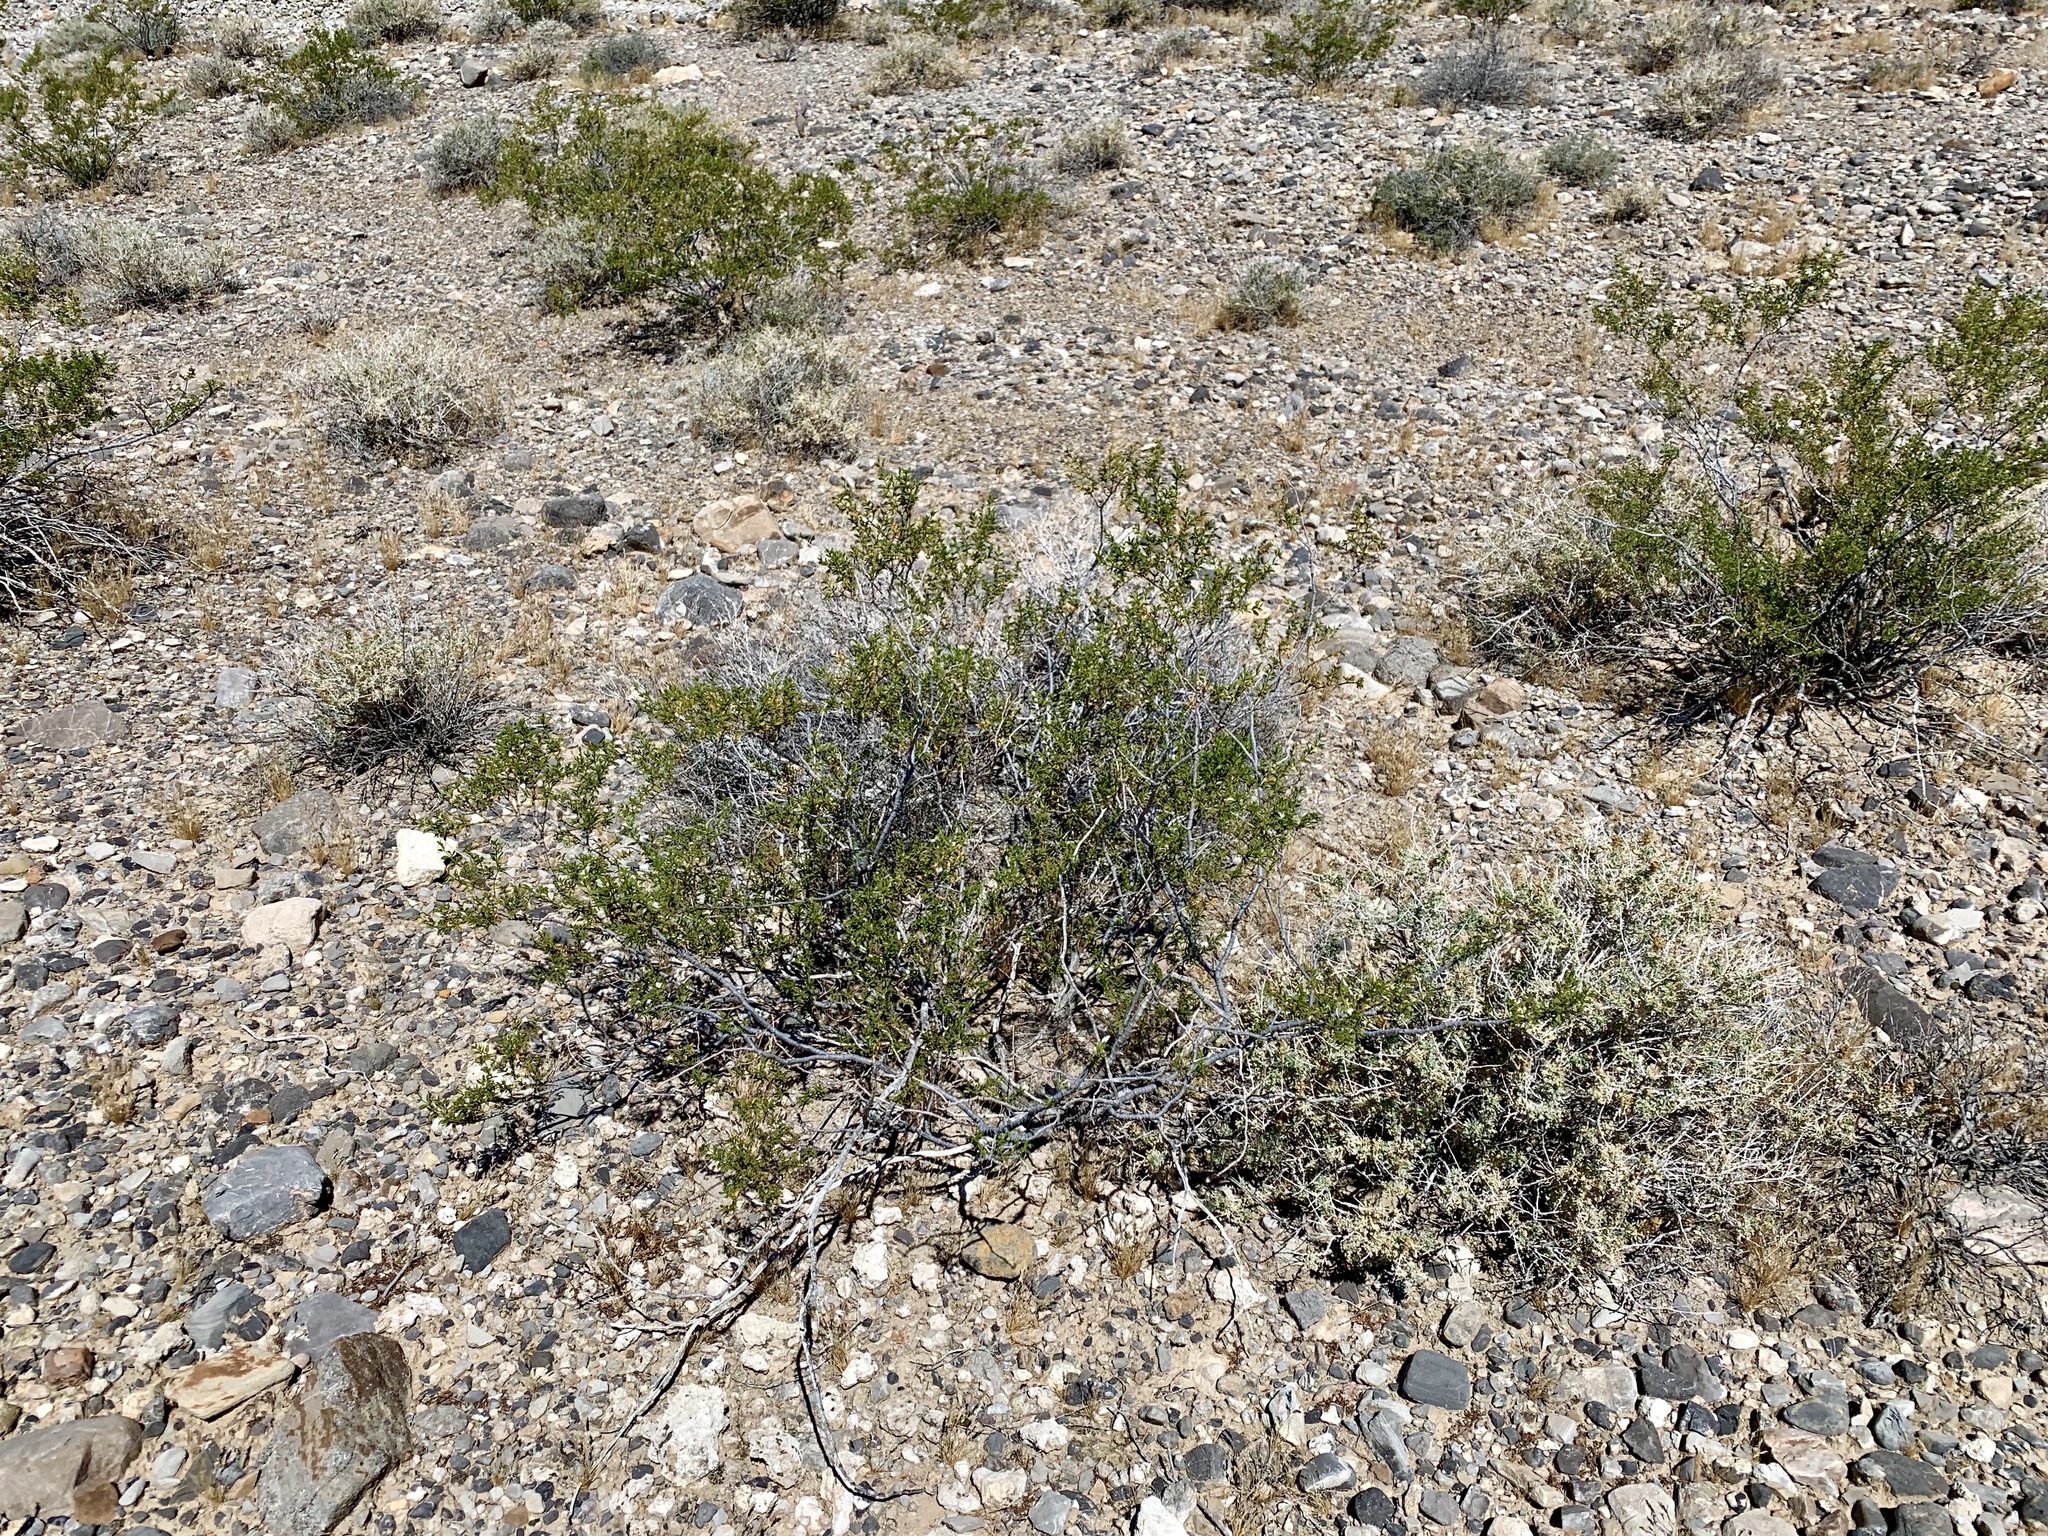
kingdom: Plantae
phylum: Tracheophyta
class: Magnoliopsida
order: Zygophyllales
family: Zygophyllaceae
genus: Larrea
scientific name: Larrea tridentata
